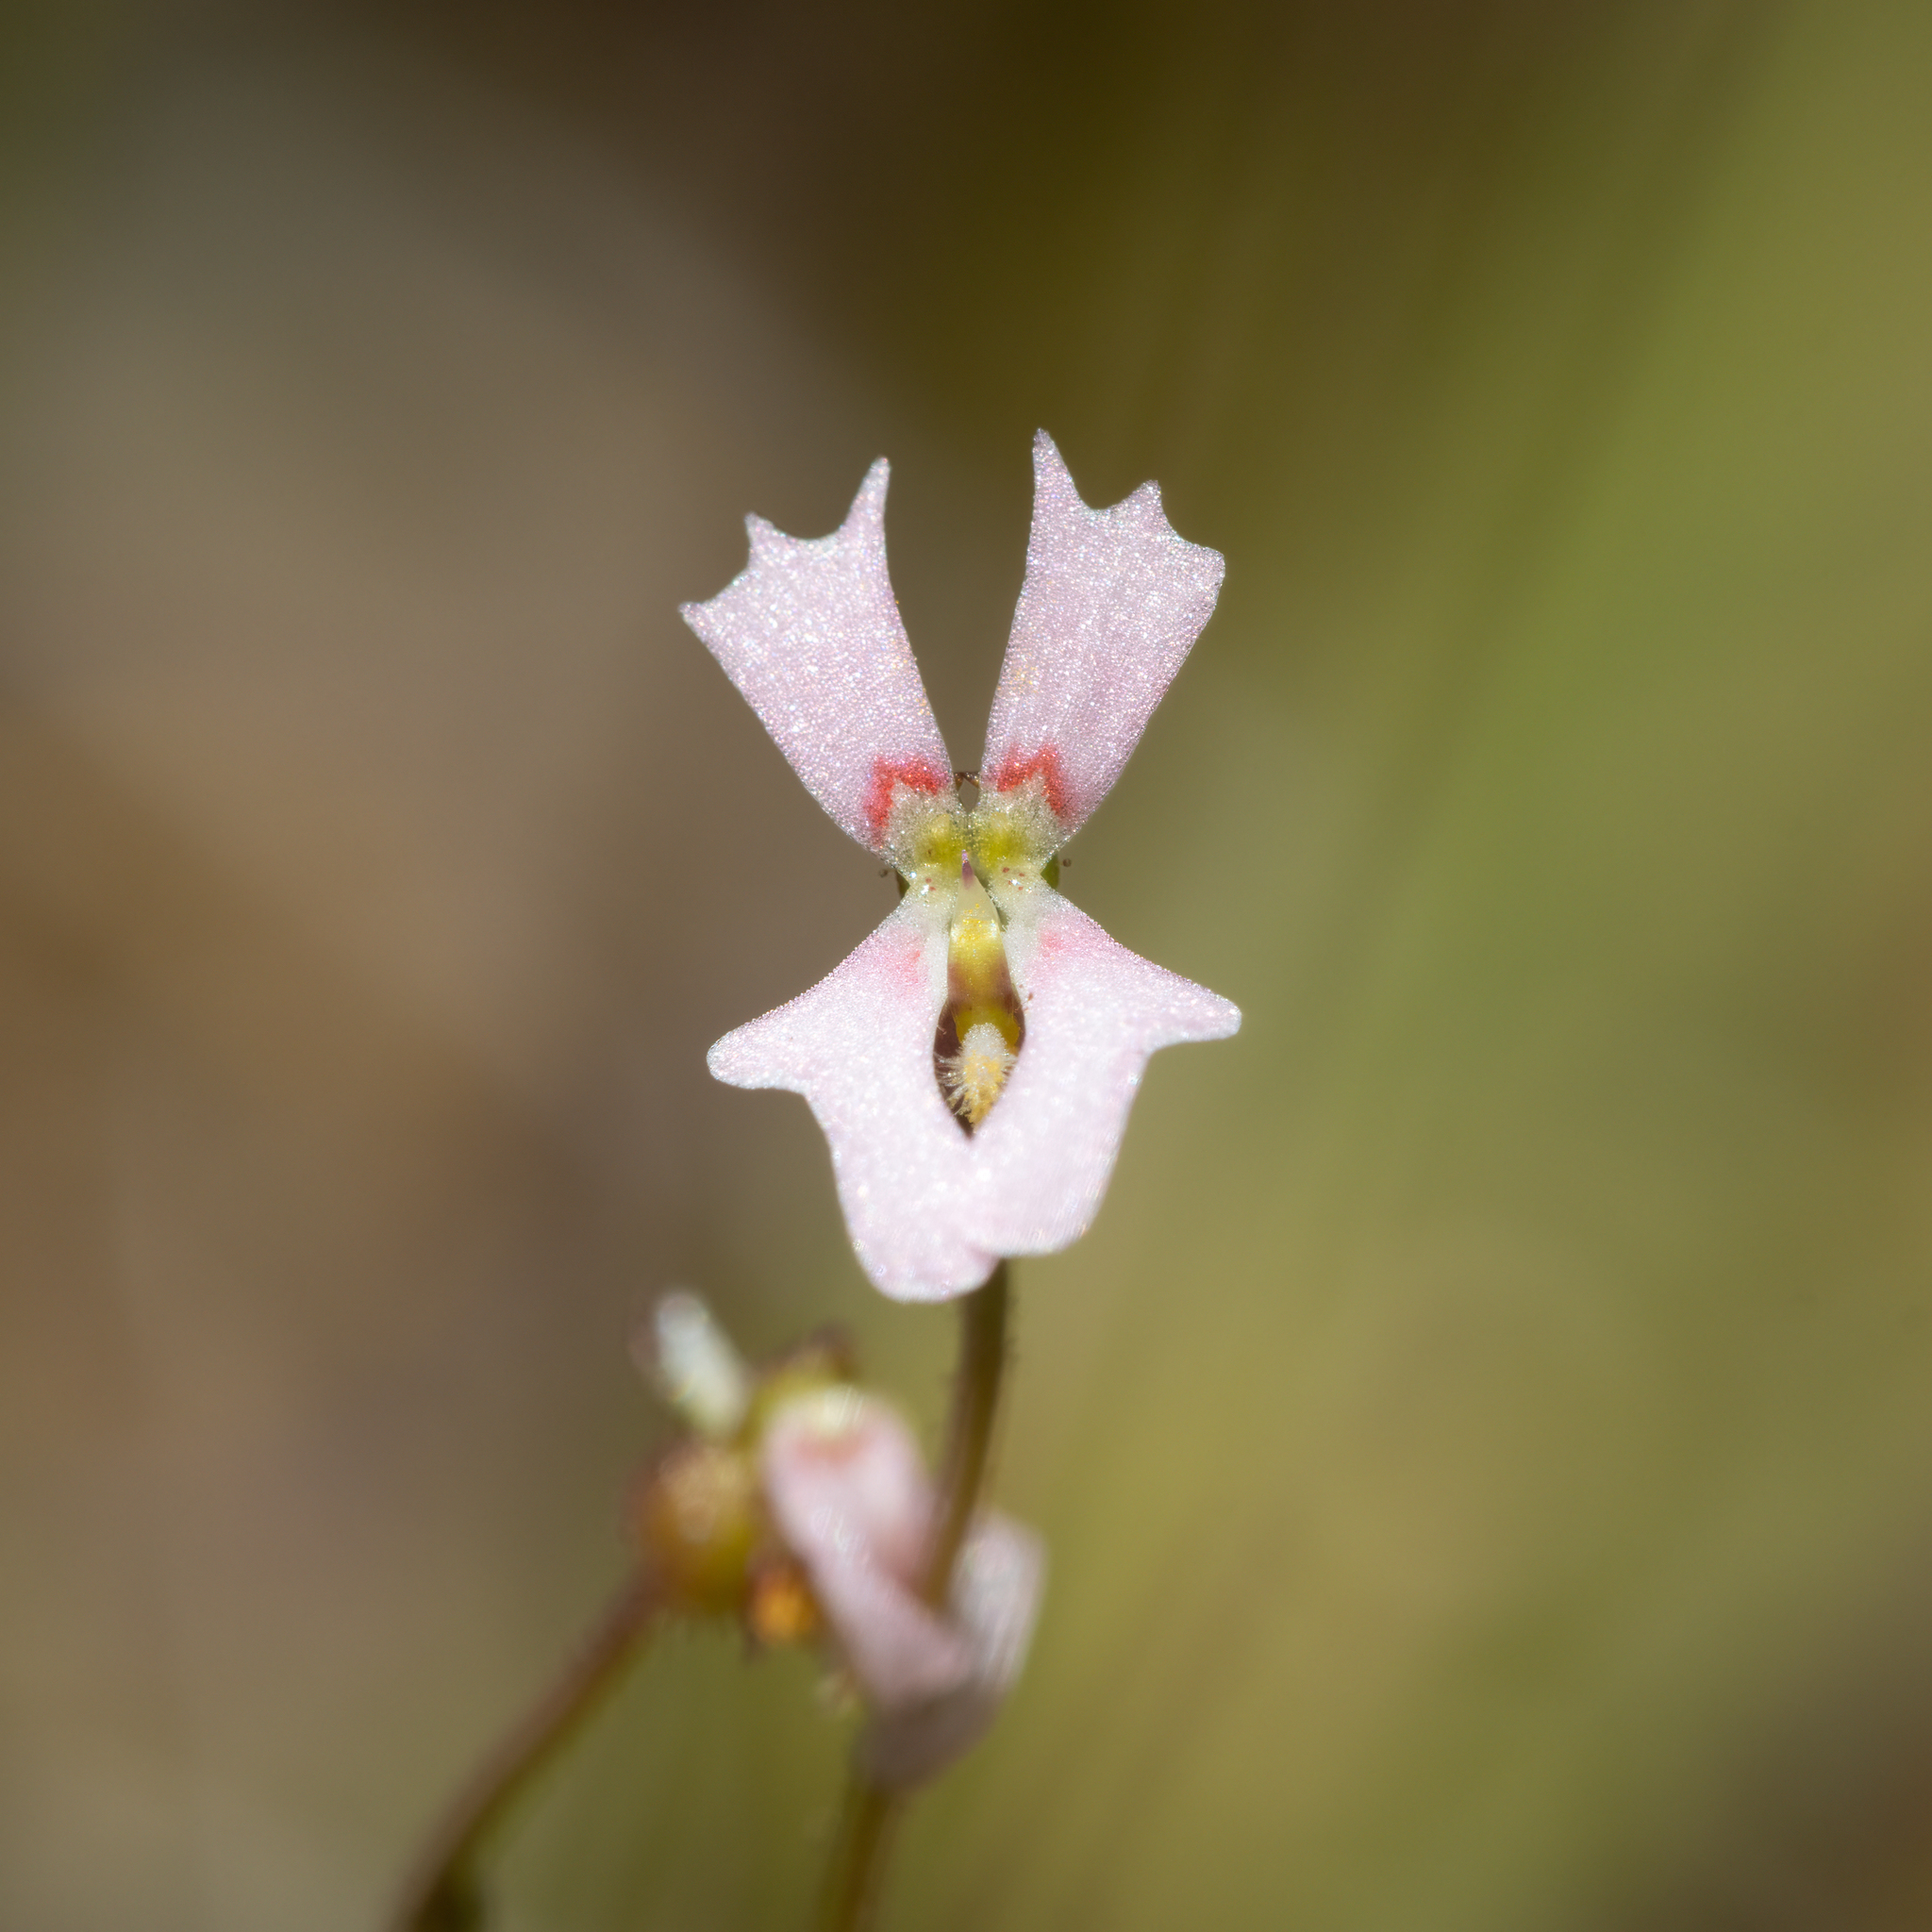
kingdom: Plantae
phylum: Tracheophyta
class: Magnoliopsida
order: Asterales
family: Stylidiaceae
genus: Stylidium
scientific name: Stylidium calcaratum
